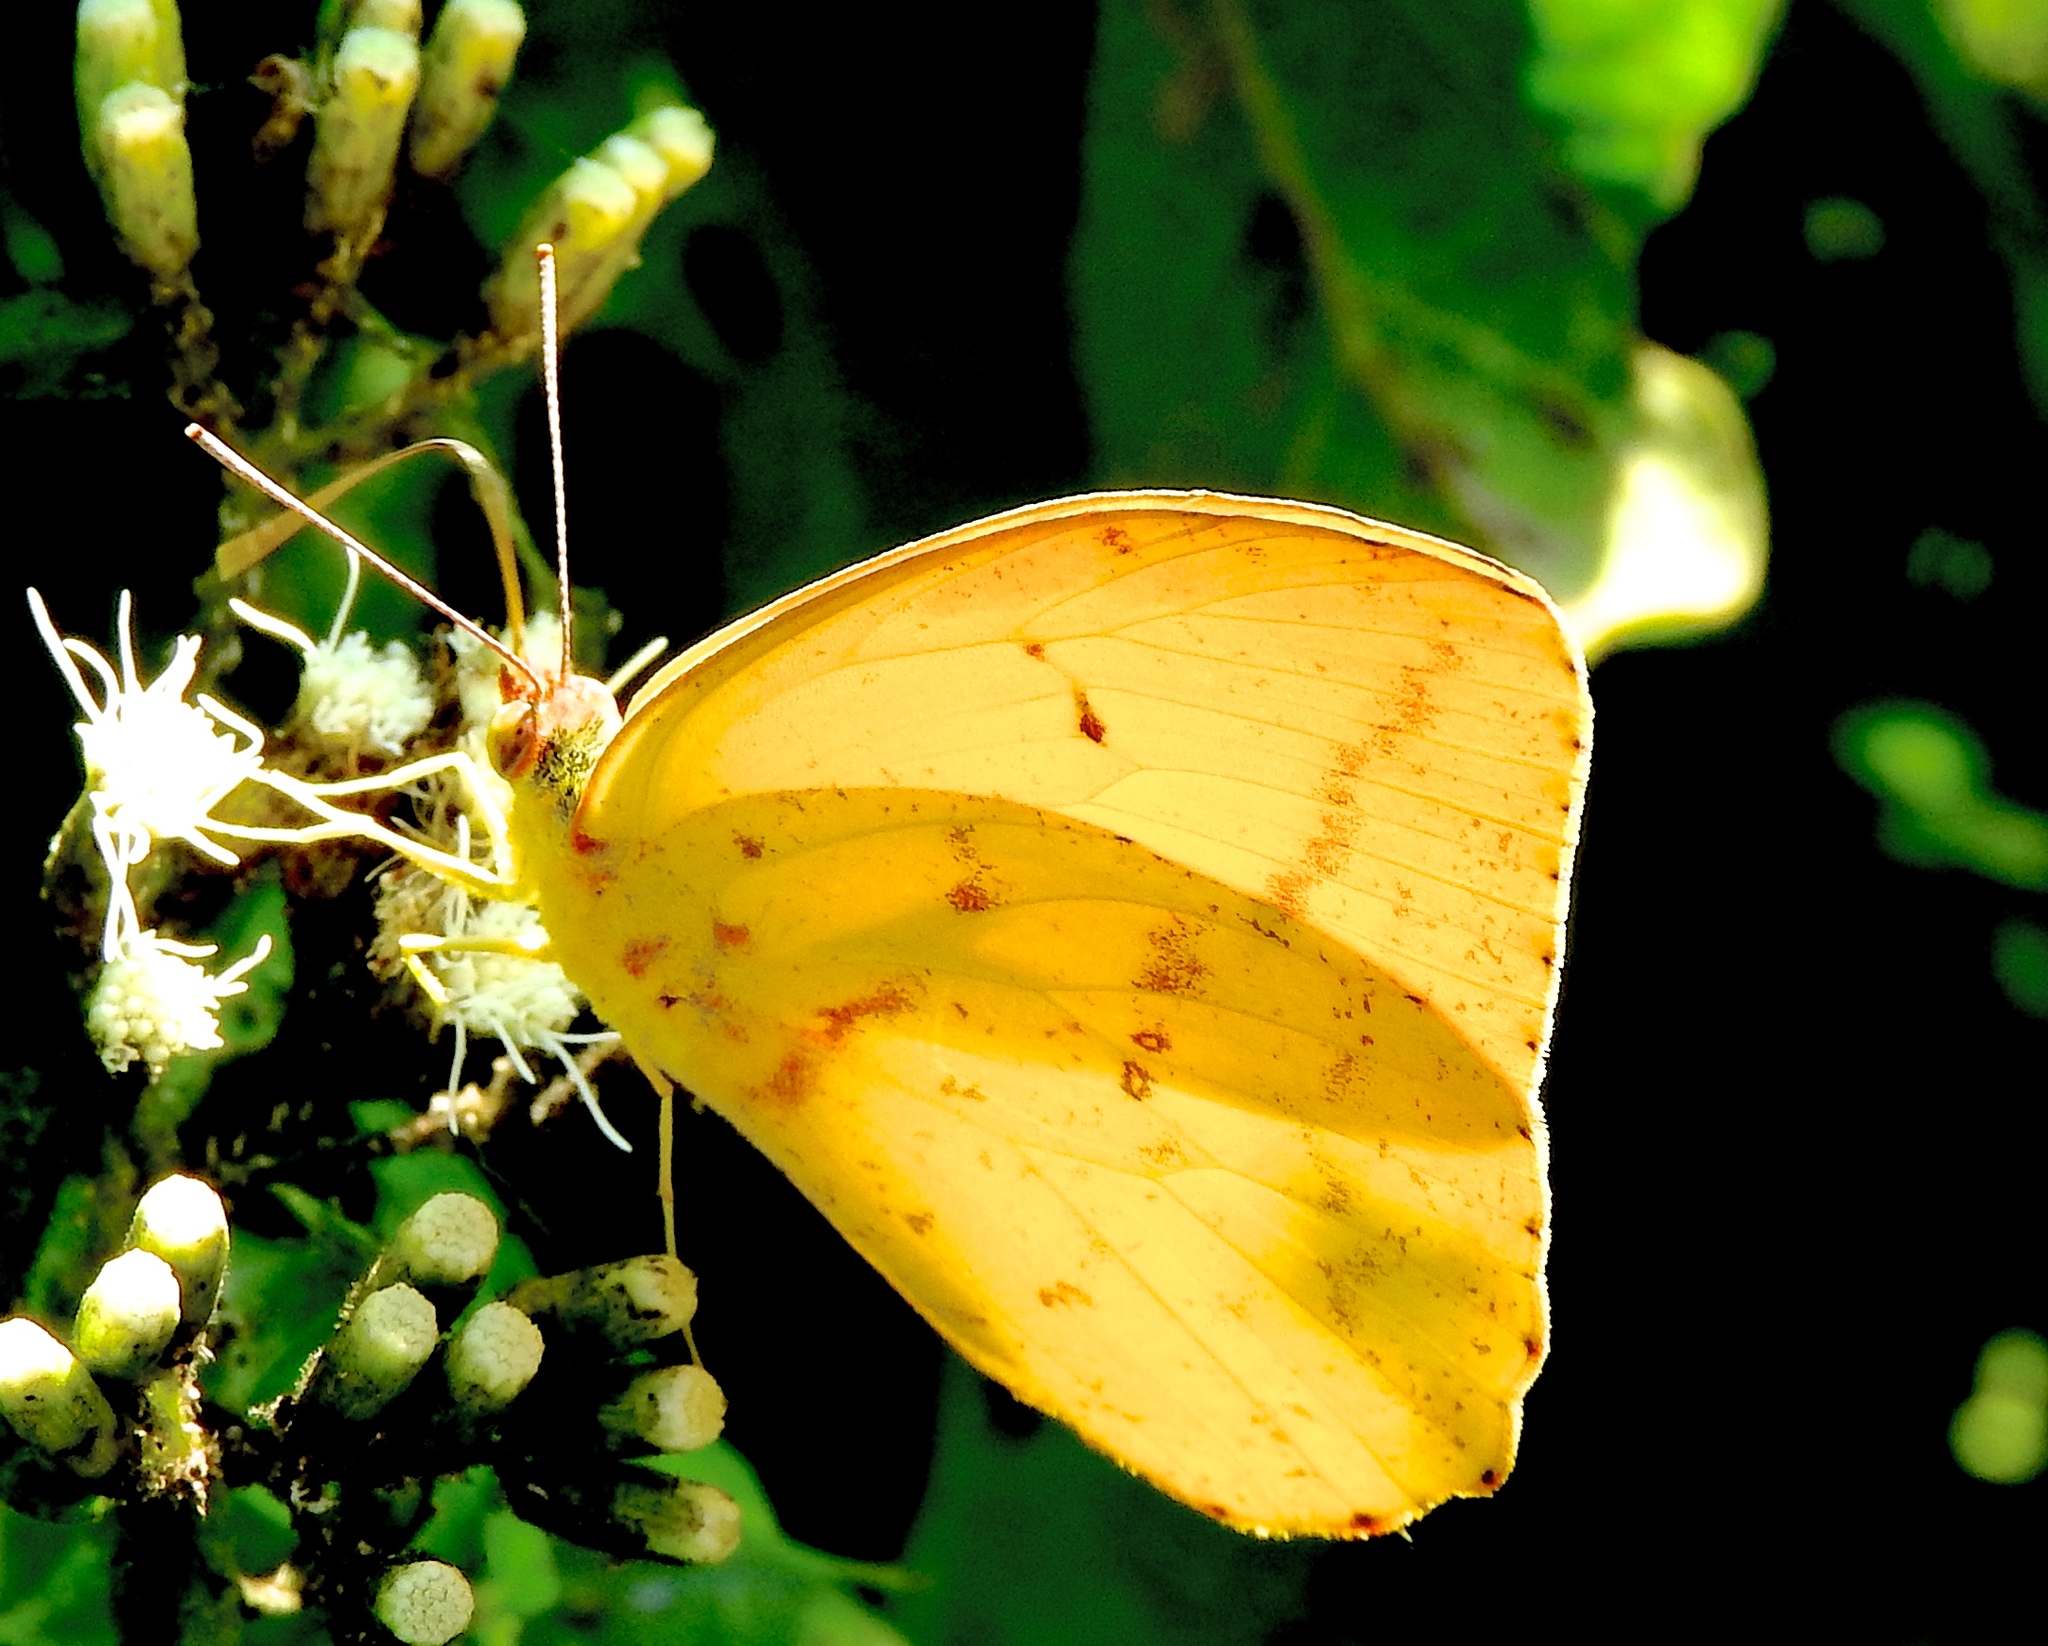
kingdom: Animalia
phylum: Arthropoda
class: Insecta
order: Lepidoptera
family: Pieridae
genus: Phoebis
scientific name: Phoebis agarithe
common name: Large orange sulphur
